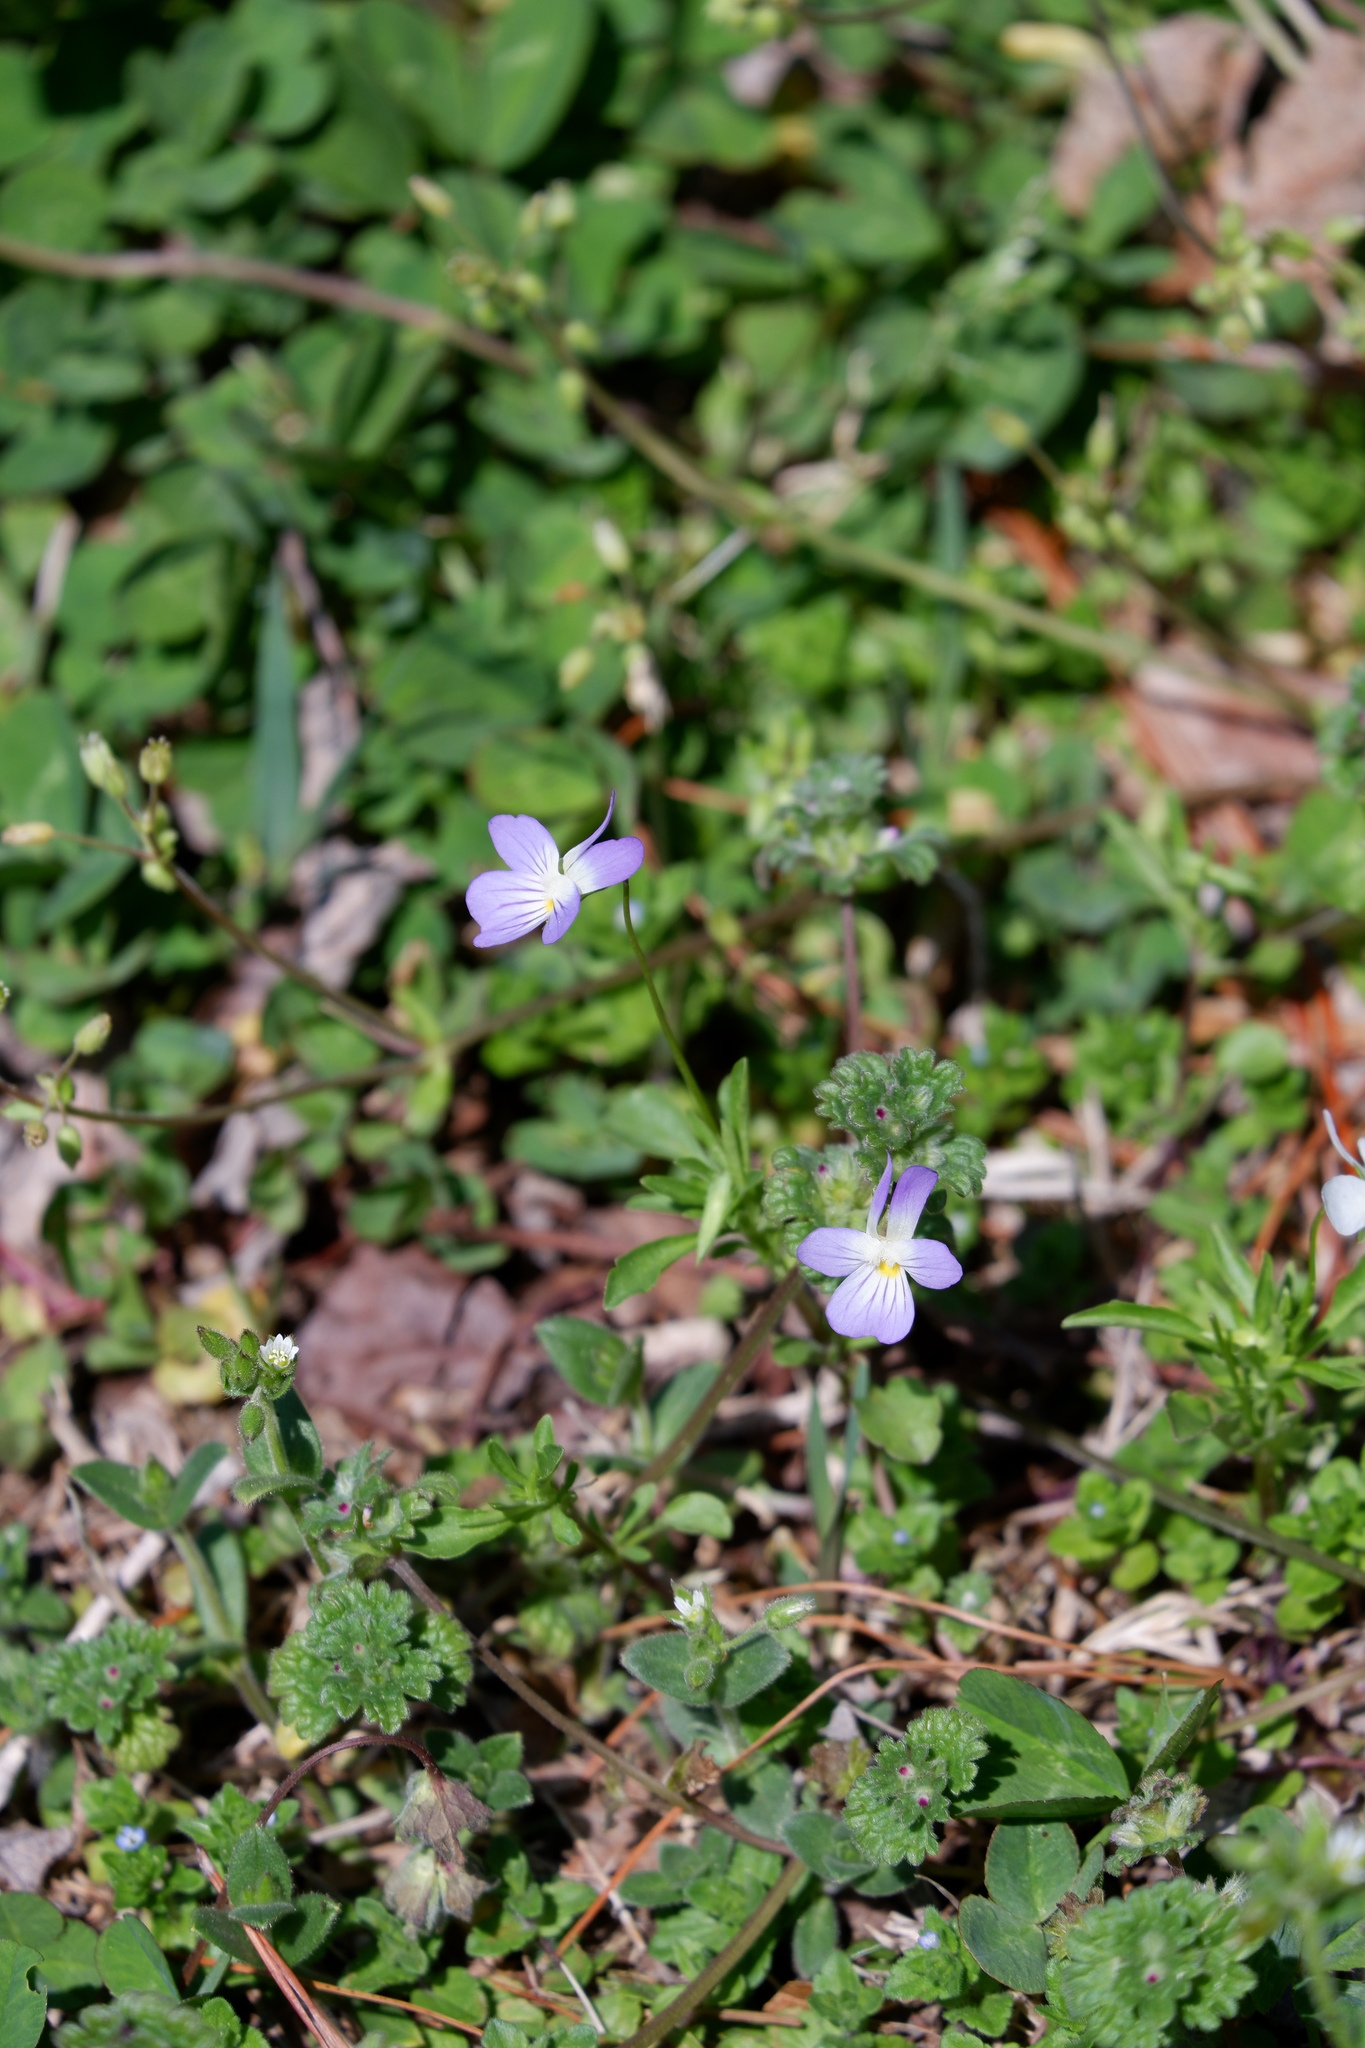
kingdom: Plantae
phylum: Tracheophyta
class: Magnoliopsida
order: Malpighiales
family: Violaceae
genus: Viola
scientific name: Viola rafinesquei
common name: American field pansy
